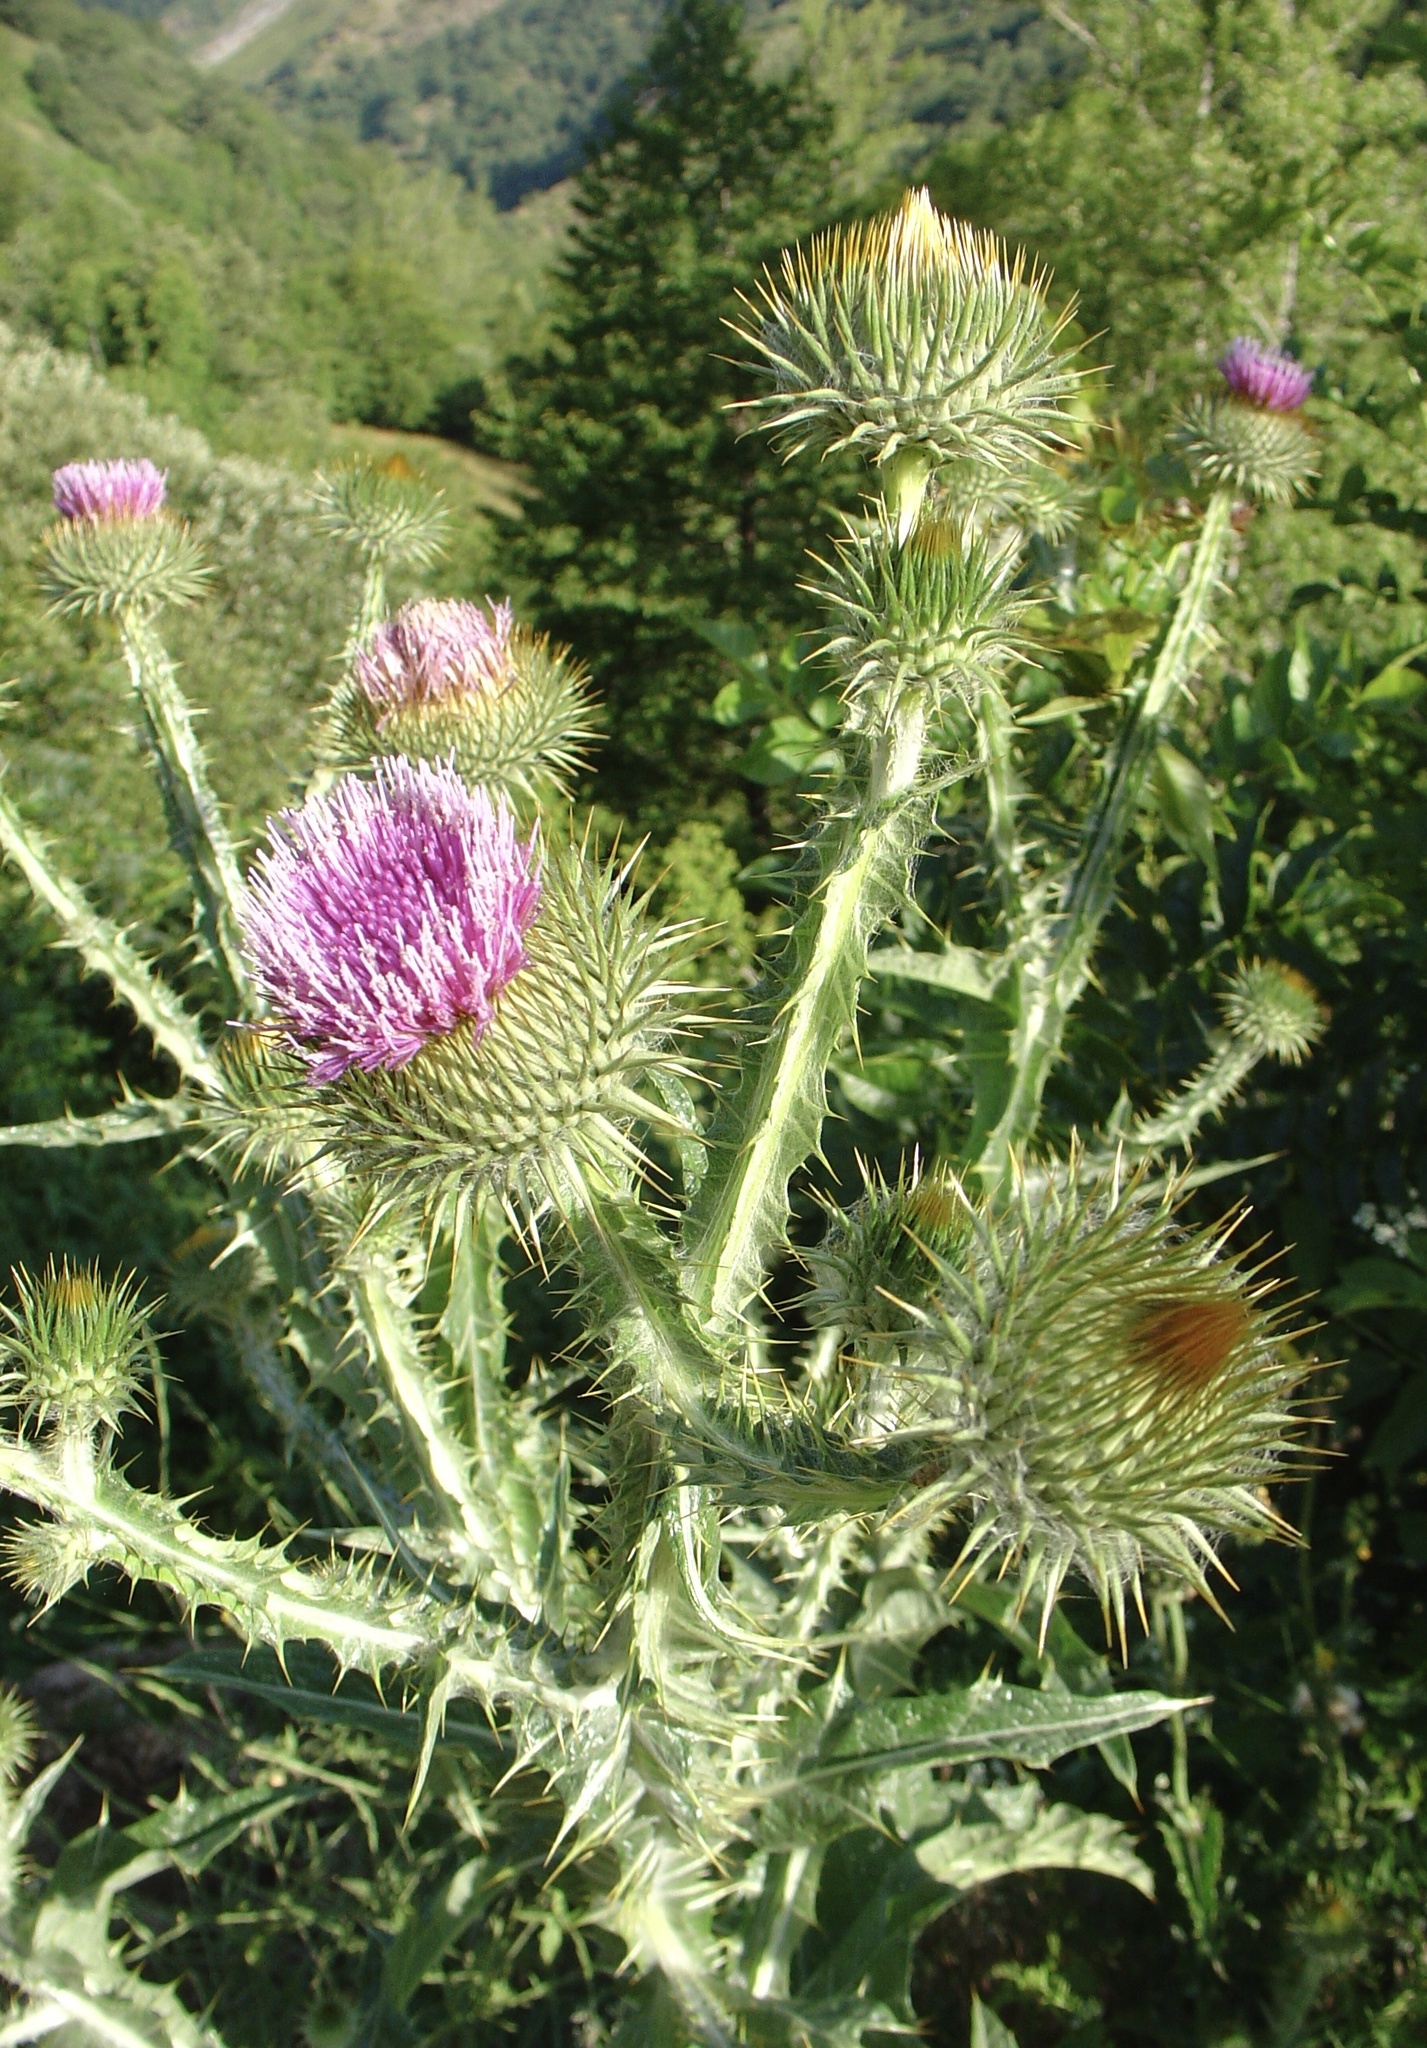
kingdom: Plantae
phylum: Tracheophyta
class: Magnoliopsida
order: Asterales
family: Asteraceae
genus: Onopordum
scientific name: Onopordum acanthium
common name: Scotch thistle
